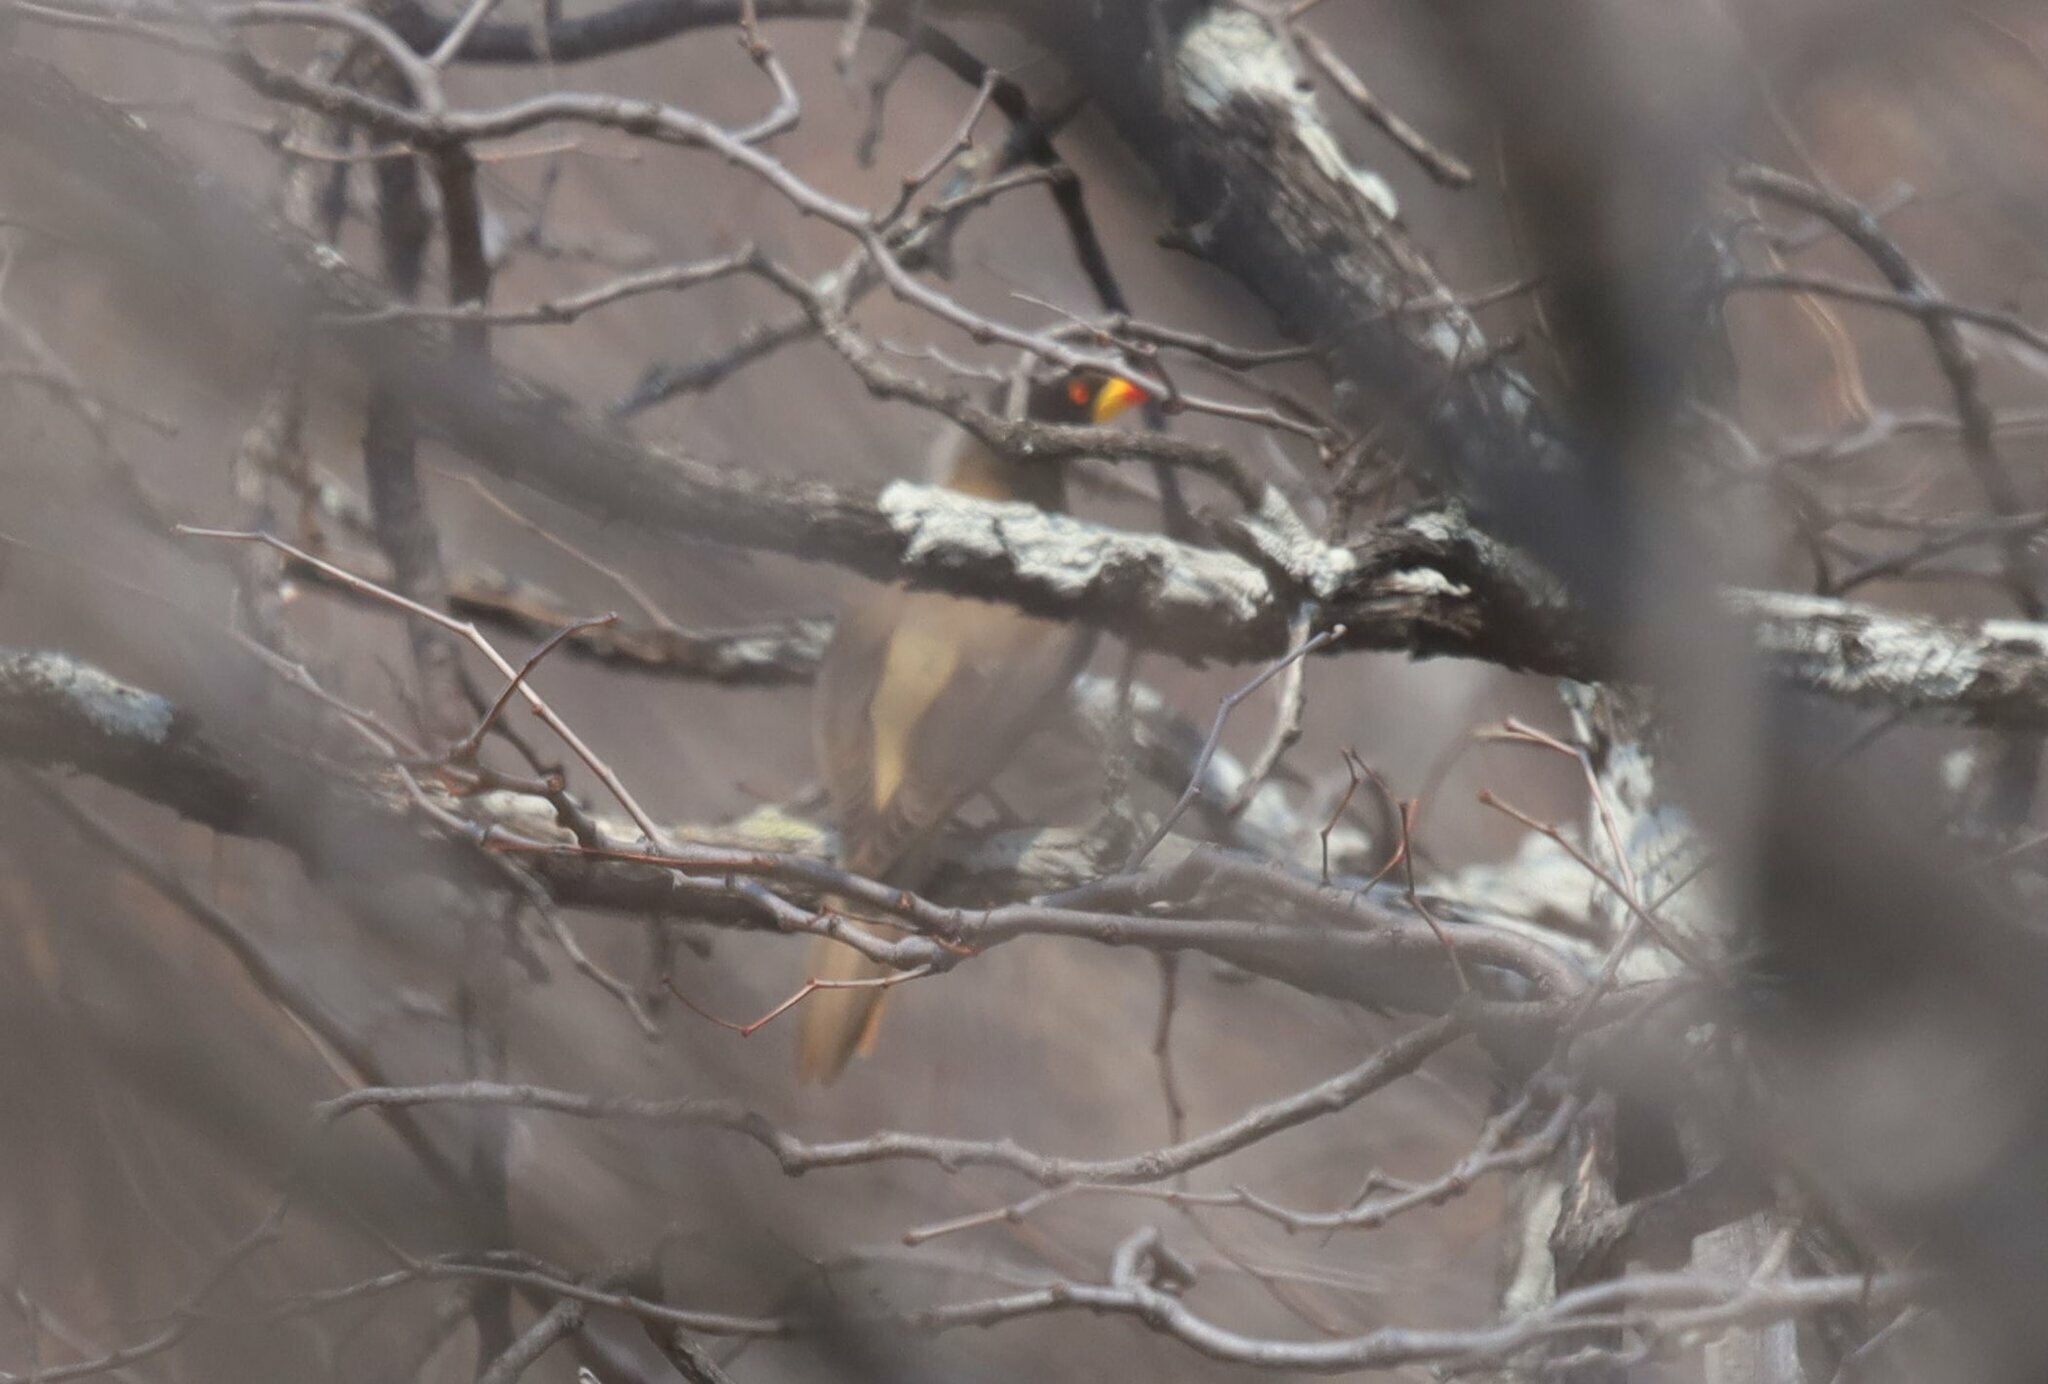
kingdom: Animalia
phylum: Chordata
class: Aves
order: Passeriformes
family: Buphagidae
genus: Buphagus
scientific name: Buphagus africanus
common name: Yellow-billed oxpecker
